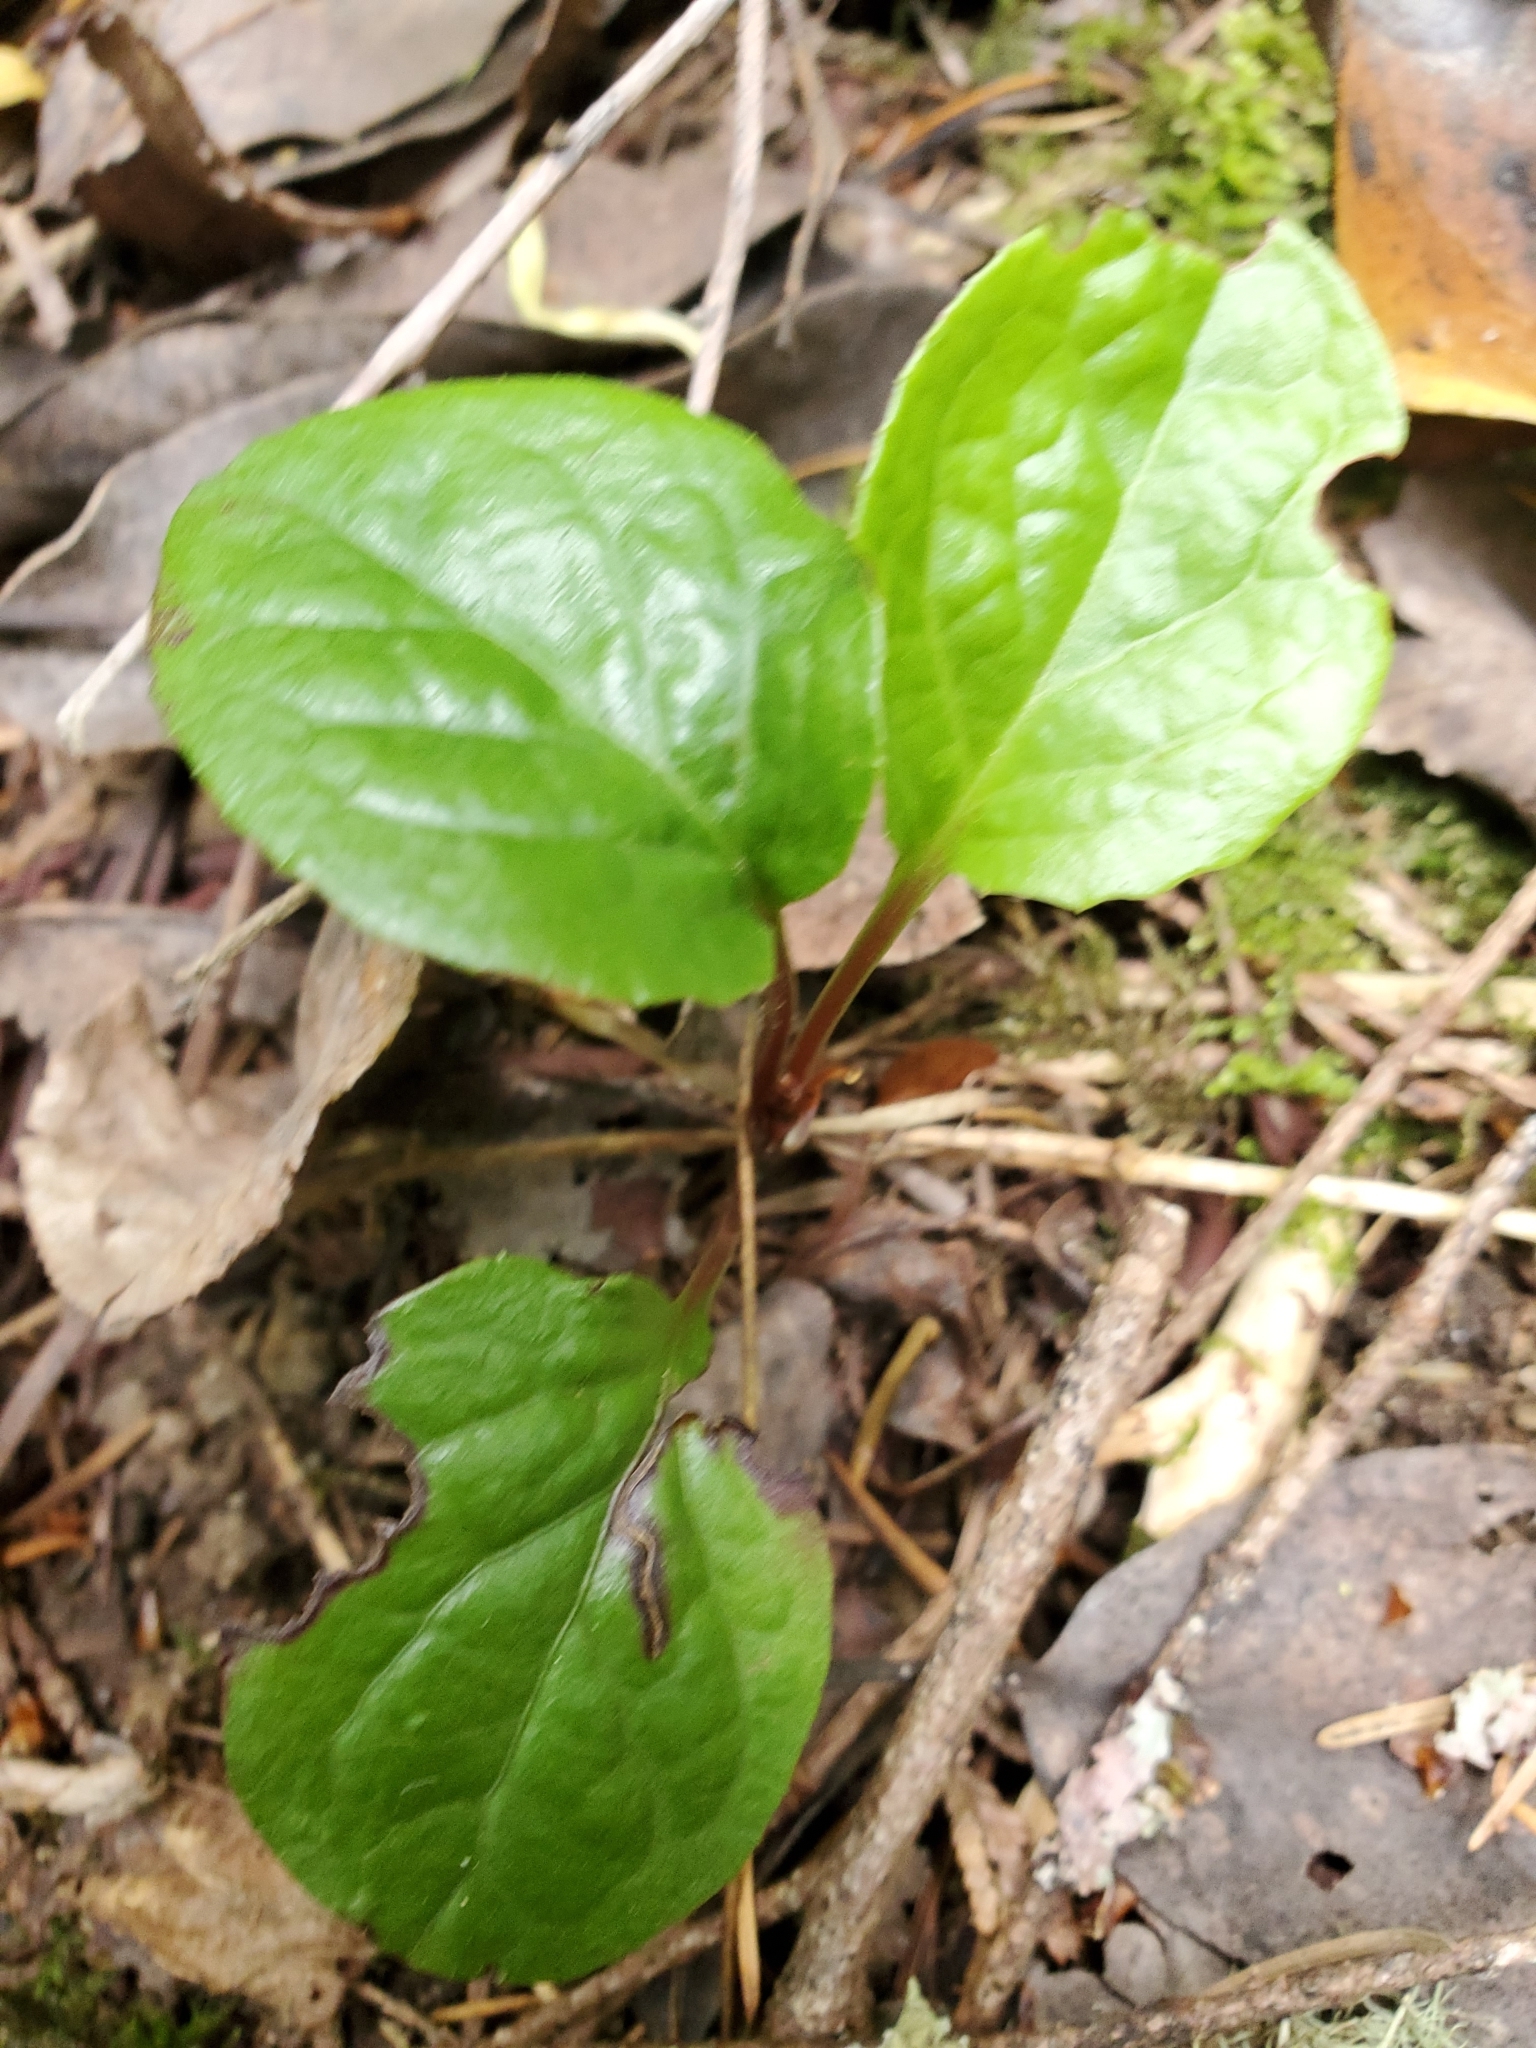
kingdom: Plantae
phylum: Tracheophyta
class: Magnoliopsida
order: Ericales
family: Ericaceae
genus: Pyrola
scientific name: Pyrola asarifolia
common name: Bog wintergreen
